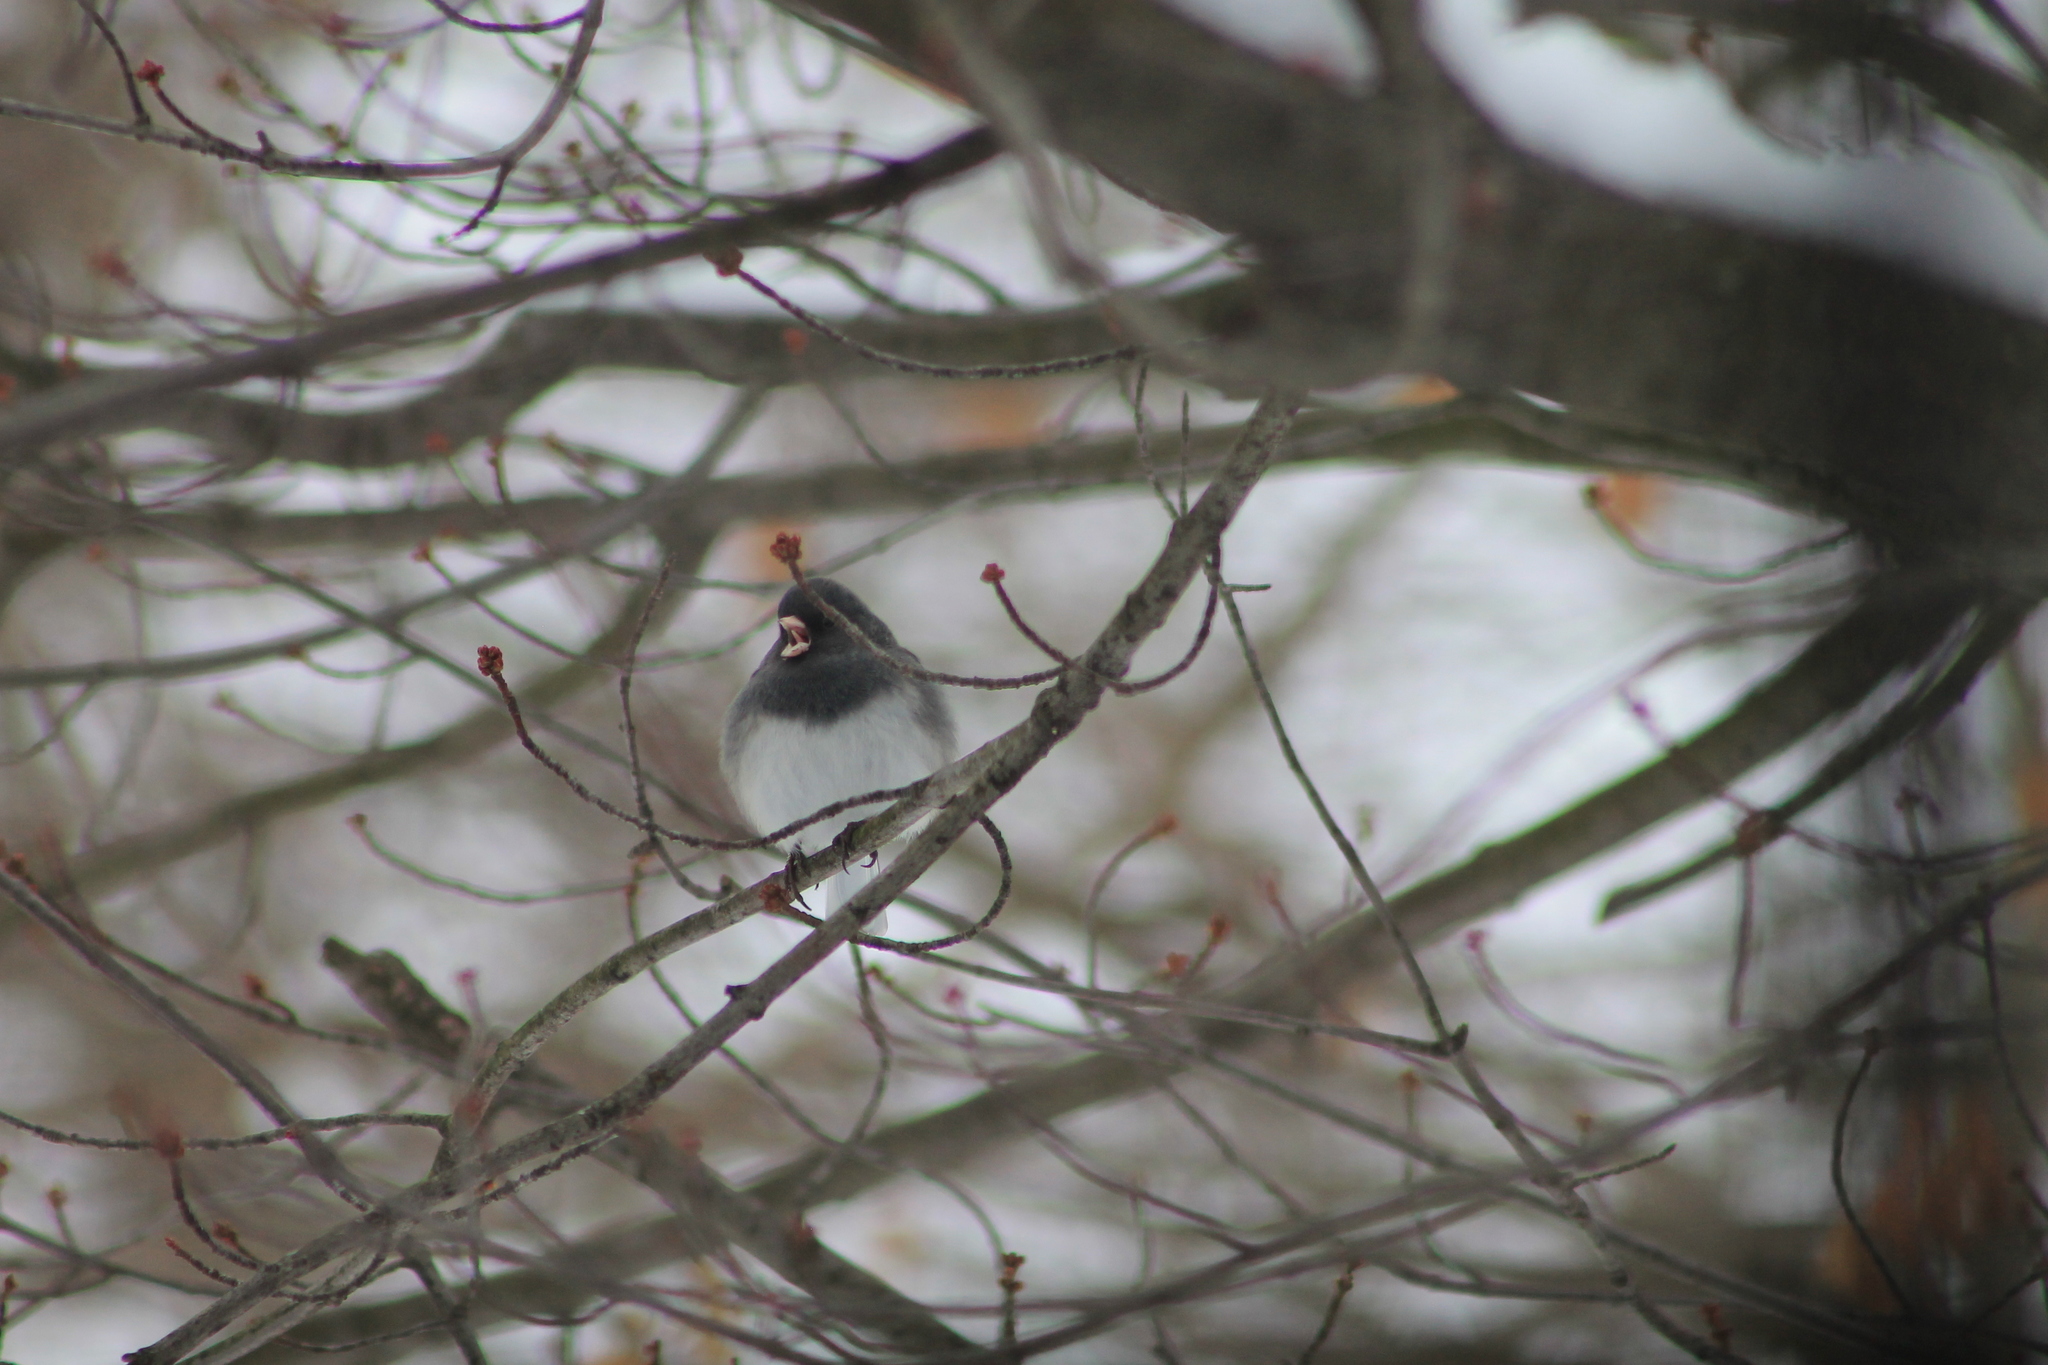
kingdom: Animalia
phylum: Chordata
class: Aves
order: Passeriformes
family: Passerellidae
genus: Junco
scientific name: Junco hyemalis
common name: Dark-eyed junco
